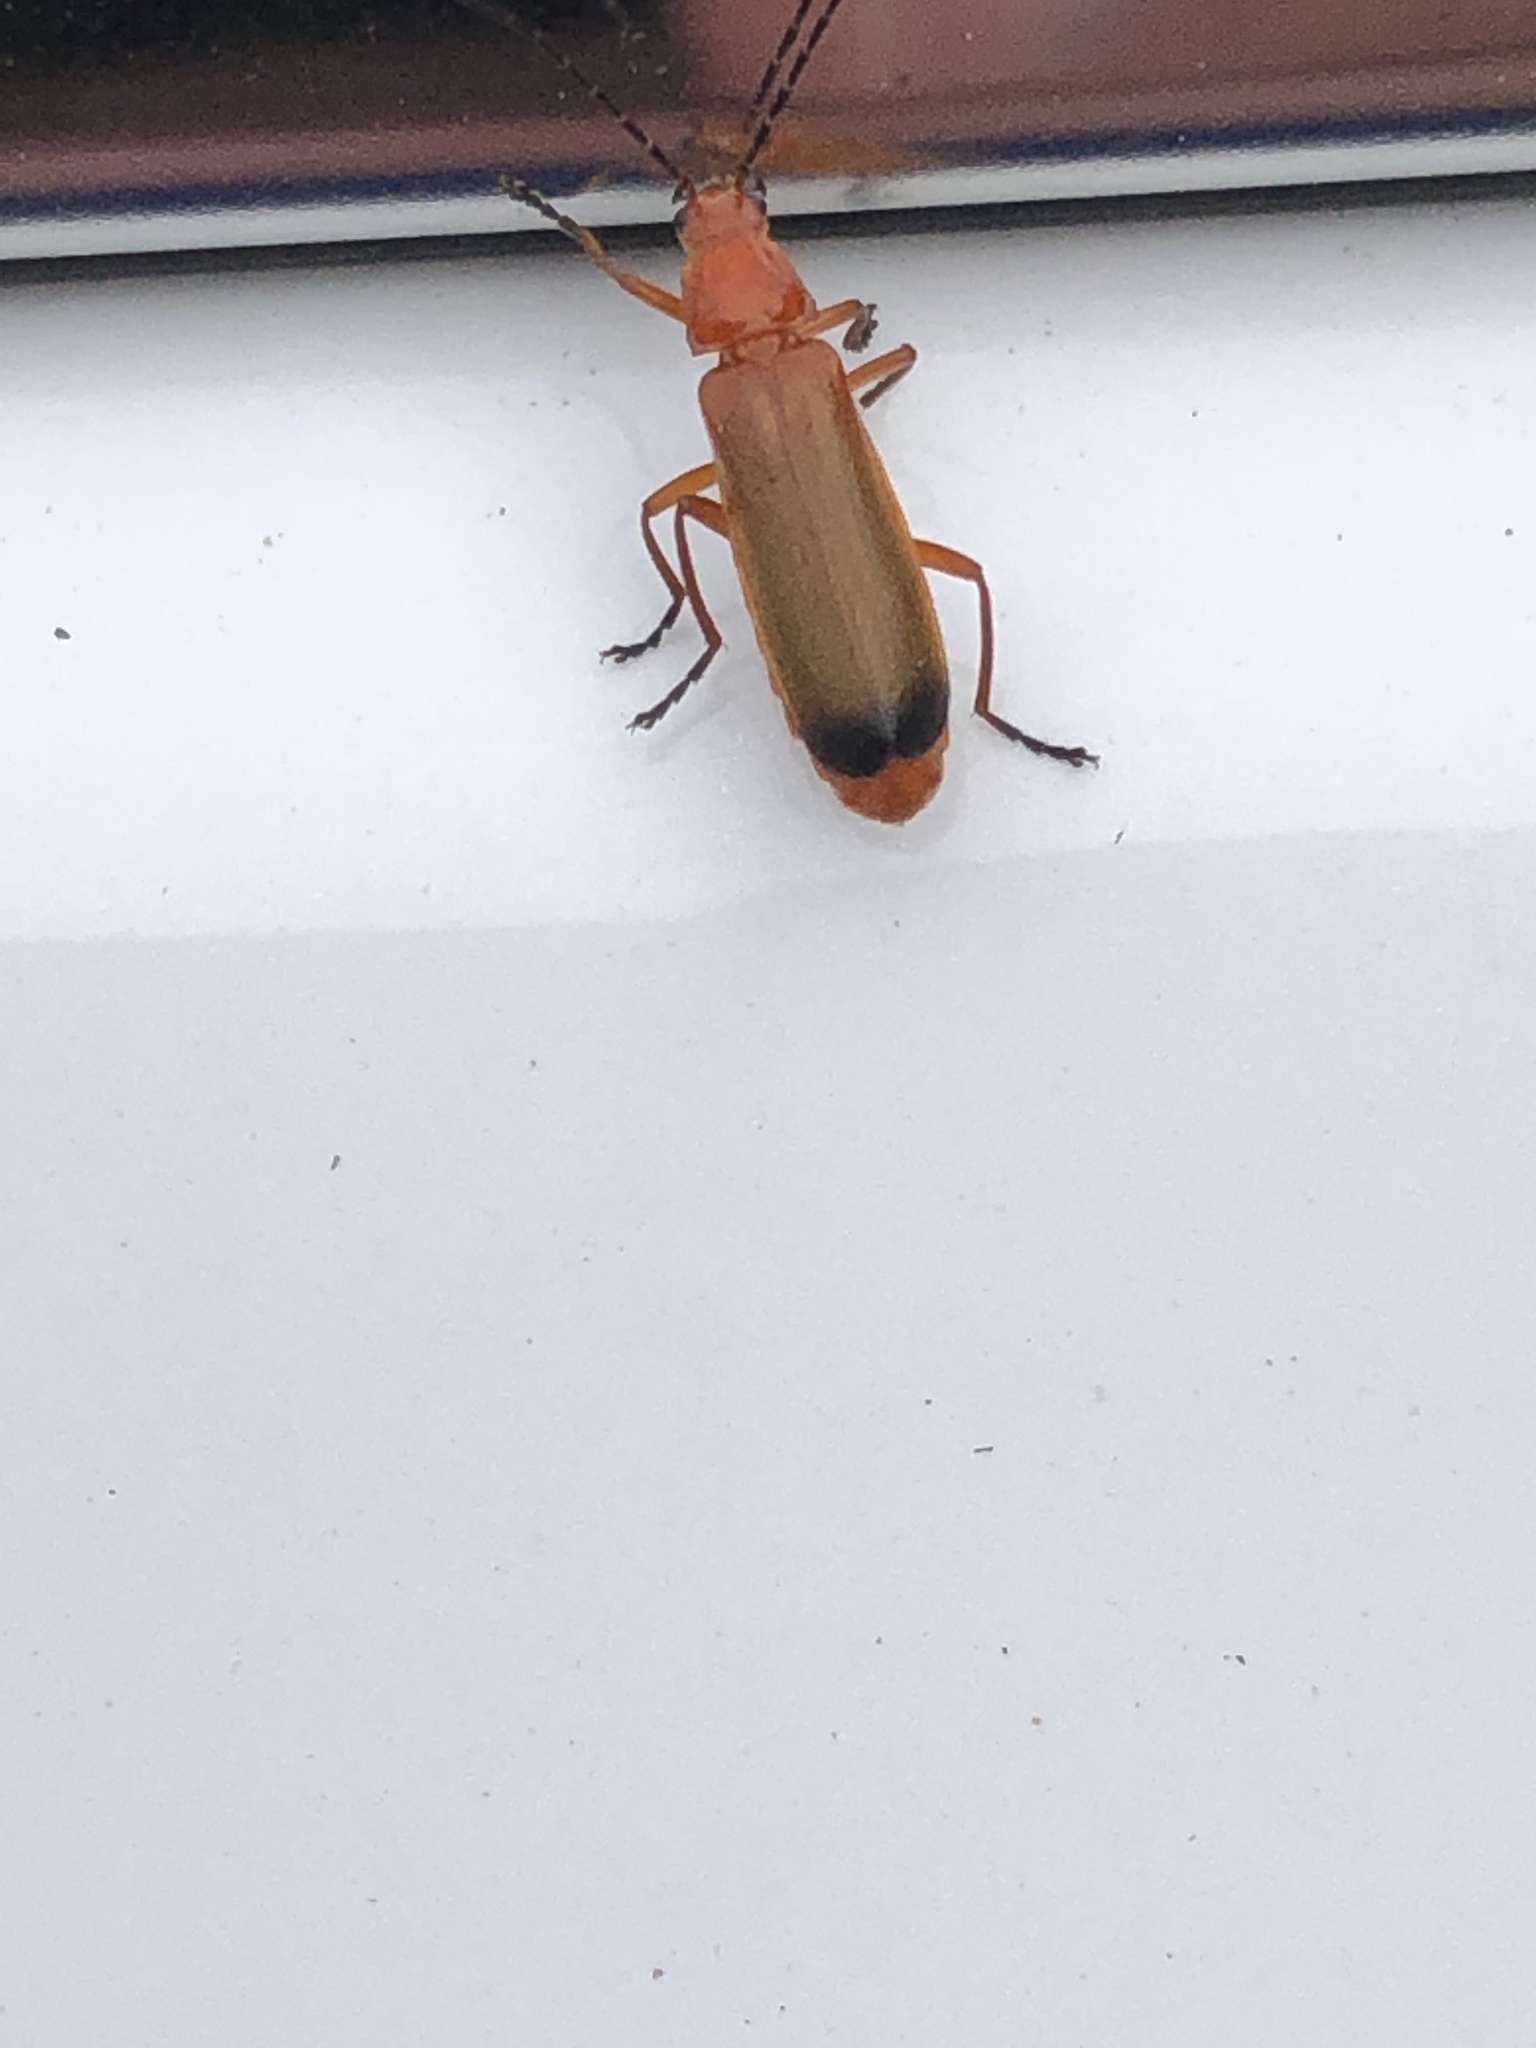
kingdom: Animalia
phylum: Arthropoda
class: Insecta
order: Coleoptera
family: Cantharidae
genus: Rhagonycha
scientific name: Rhagonycha fulva
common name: Common red soldier beetle
